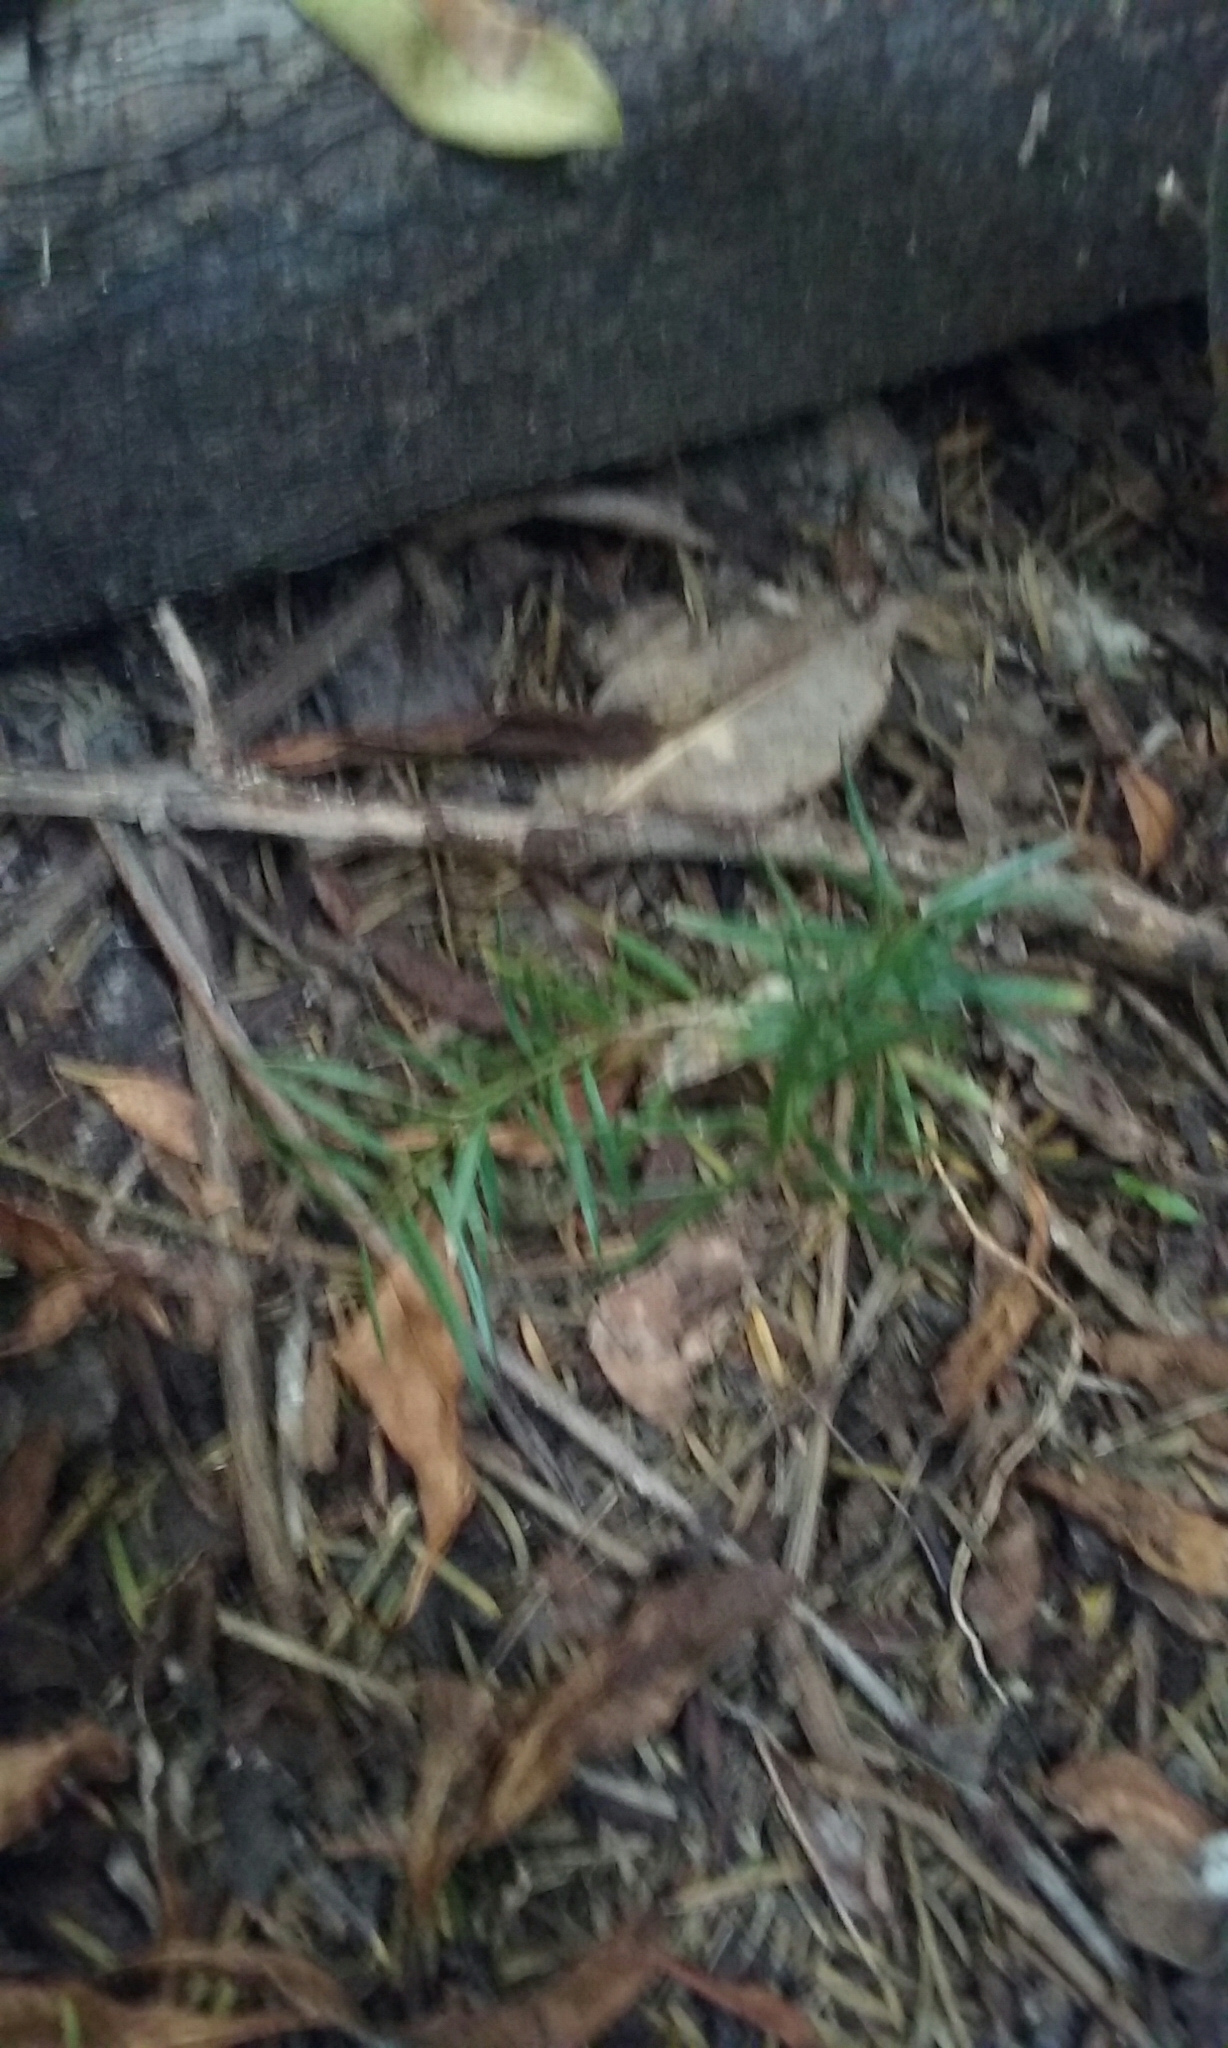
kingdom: Plantae
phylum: Tracheophyta
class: Pinopsida
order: Pinales
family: Podocarpaceae
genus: Podocarpus
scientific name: Podocarpus totara
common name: Totara
